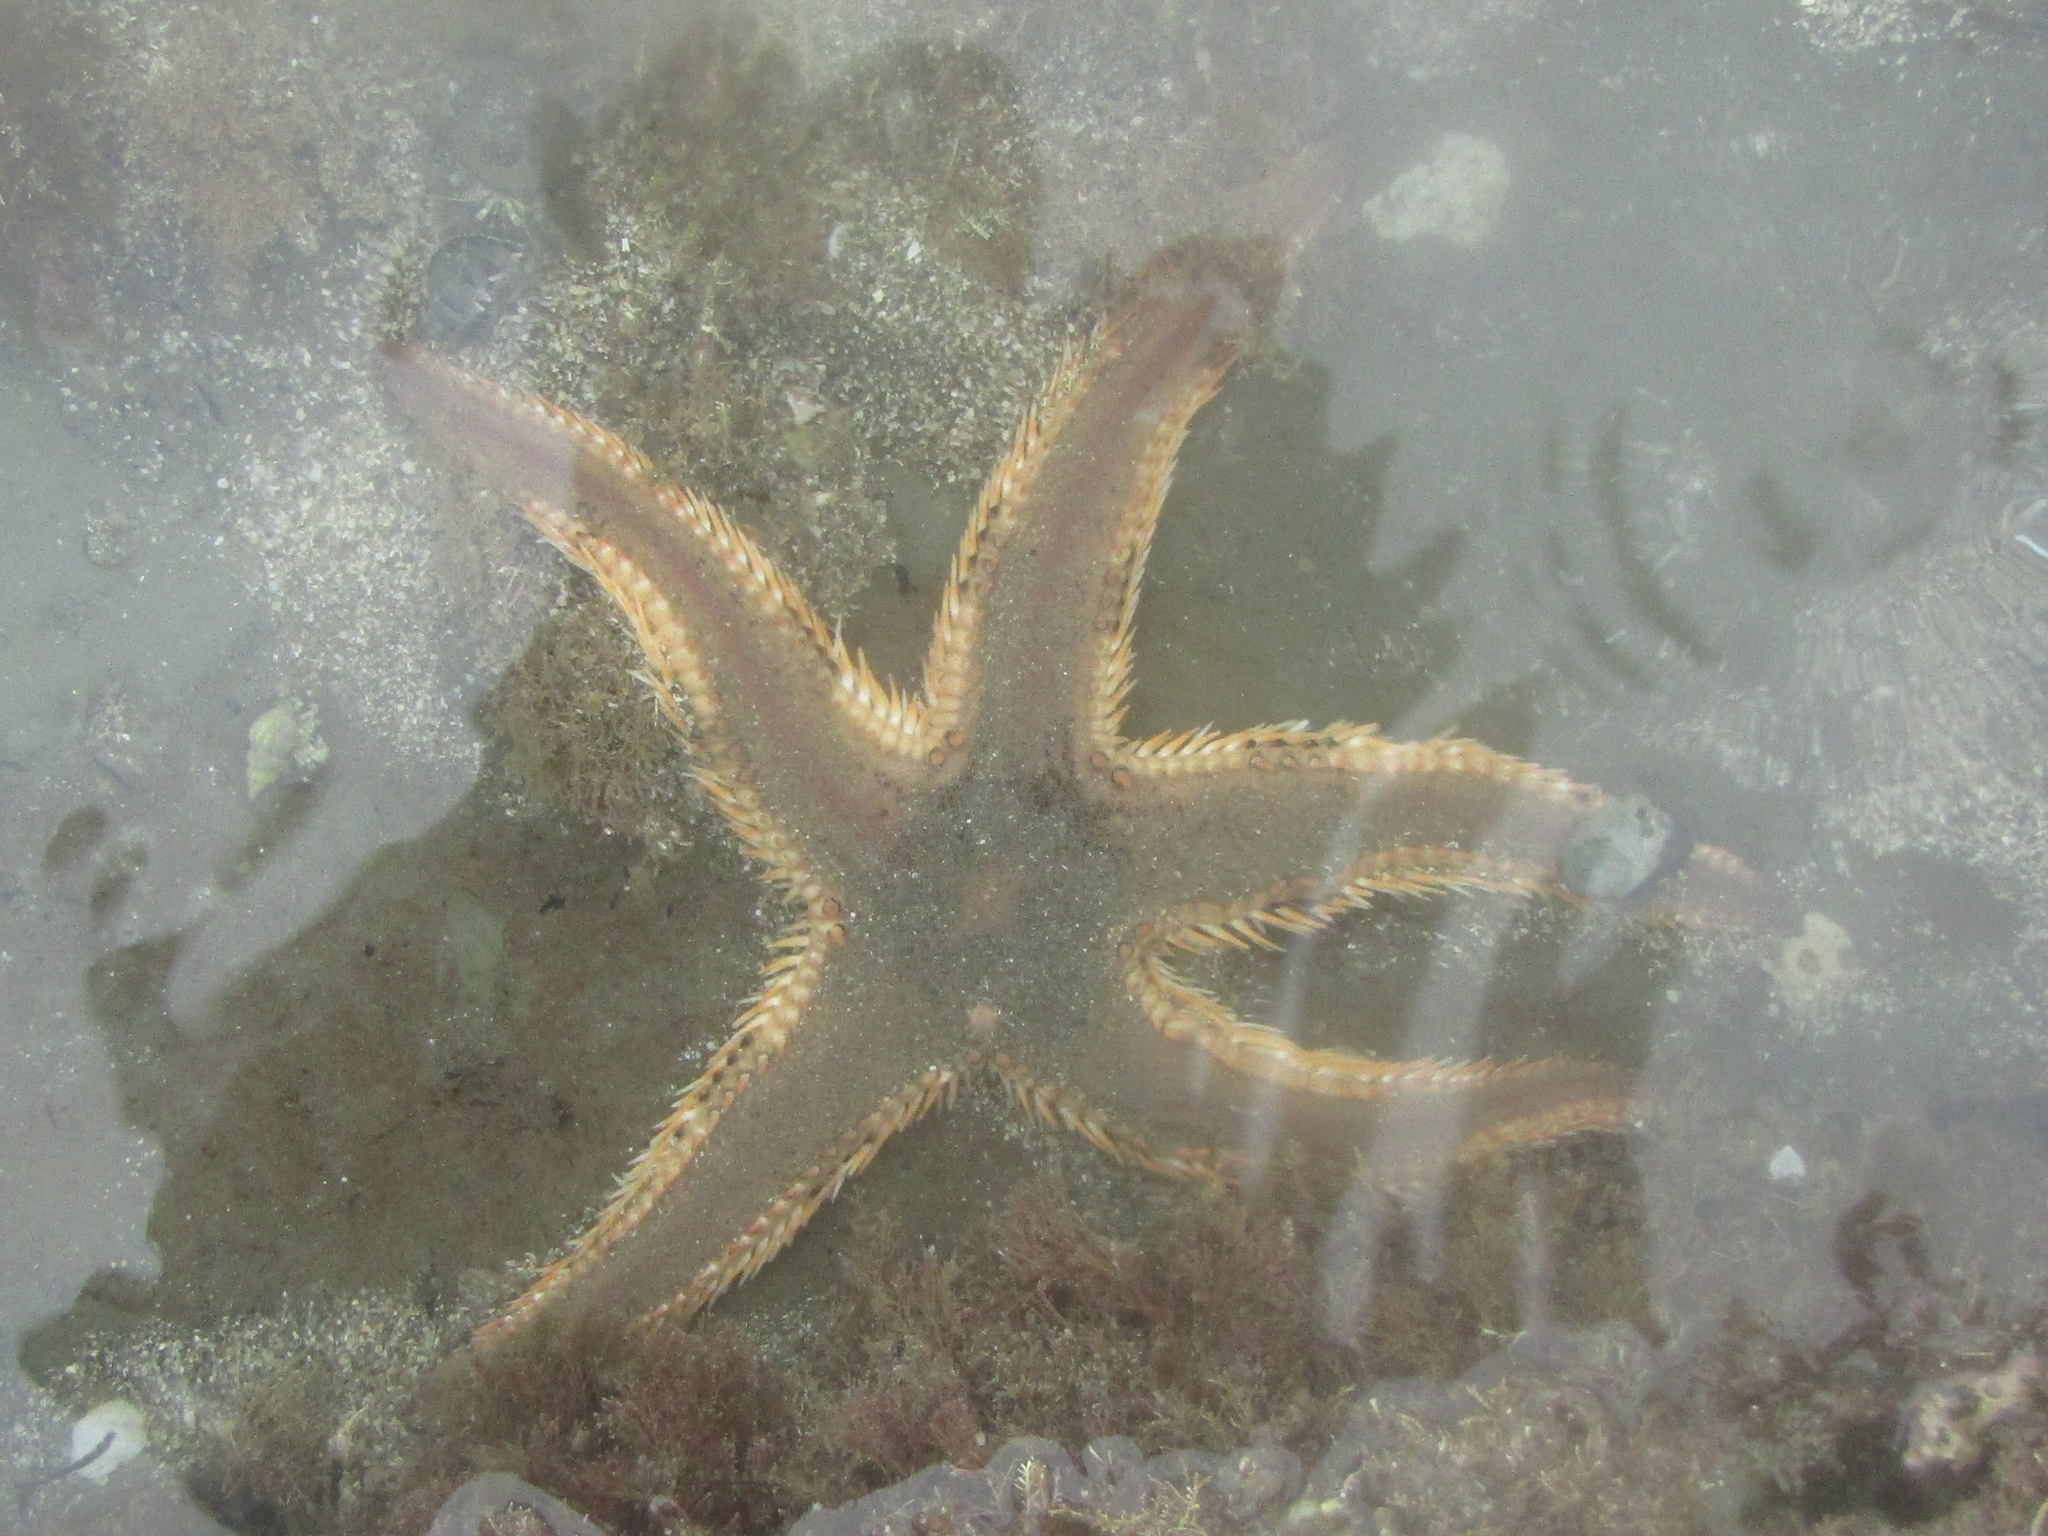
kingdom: Animalia
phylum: Echinodermata
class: Asteroidea
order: Paxillosida
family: Astropectinidae
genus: Astropecten
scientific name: Astropecten polyacanthus
